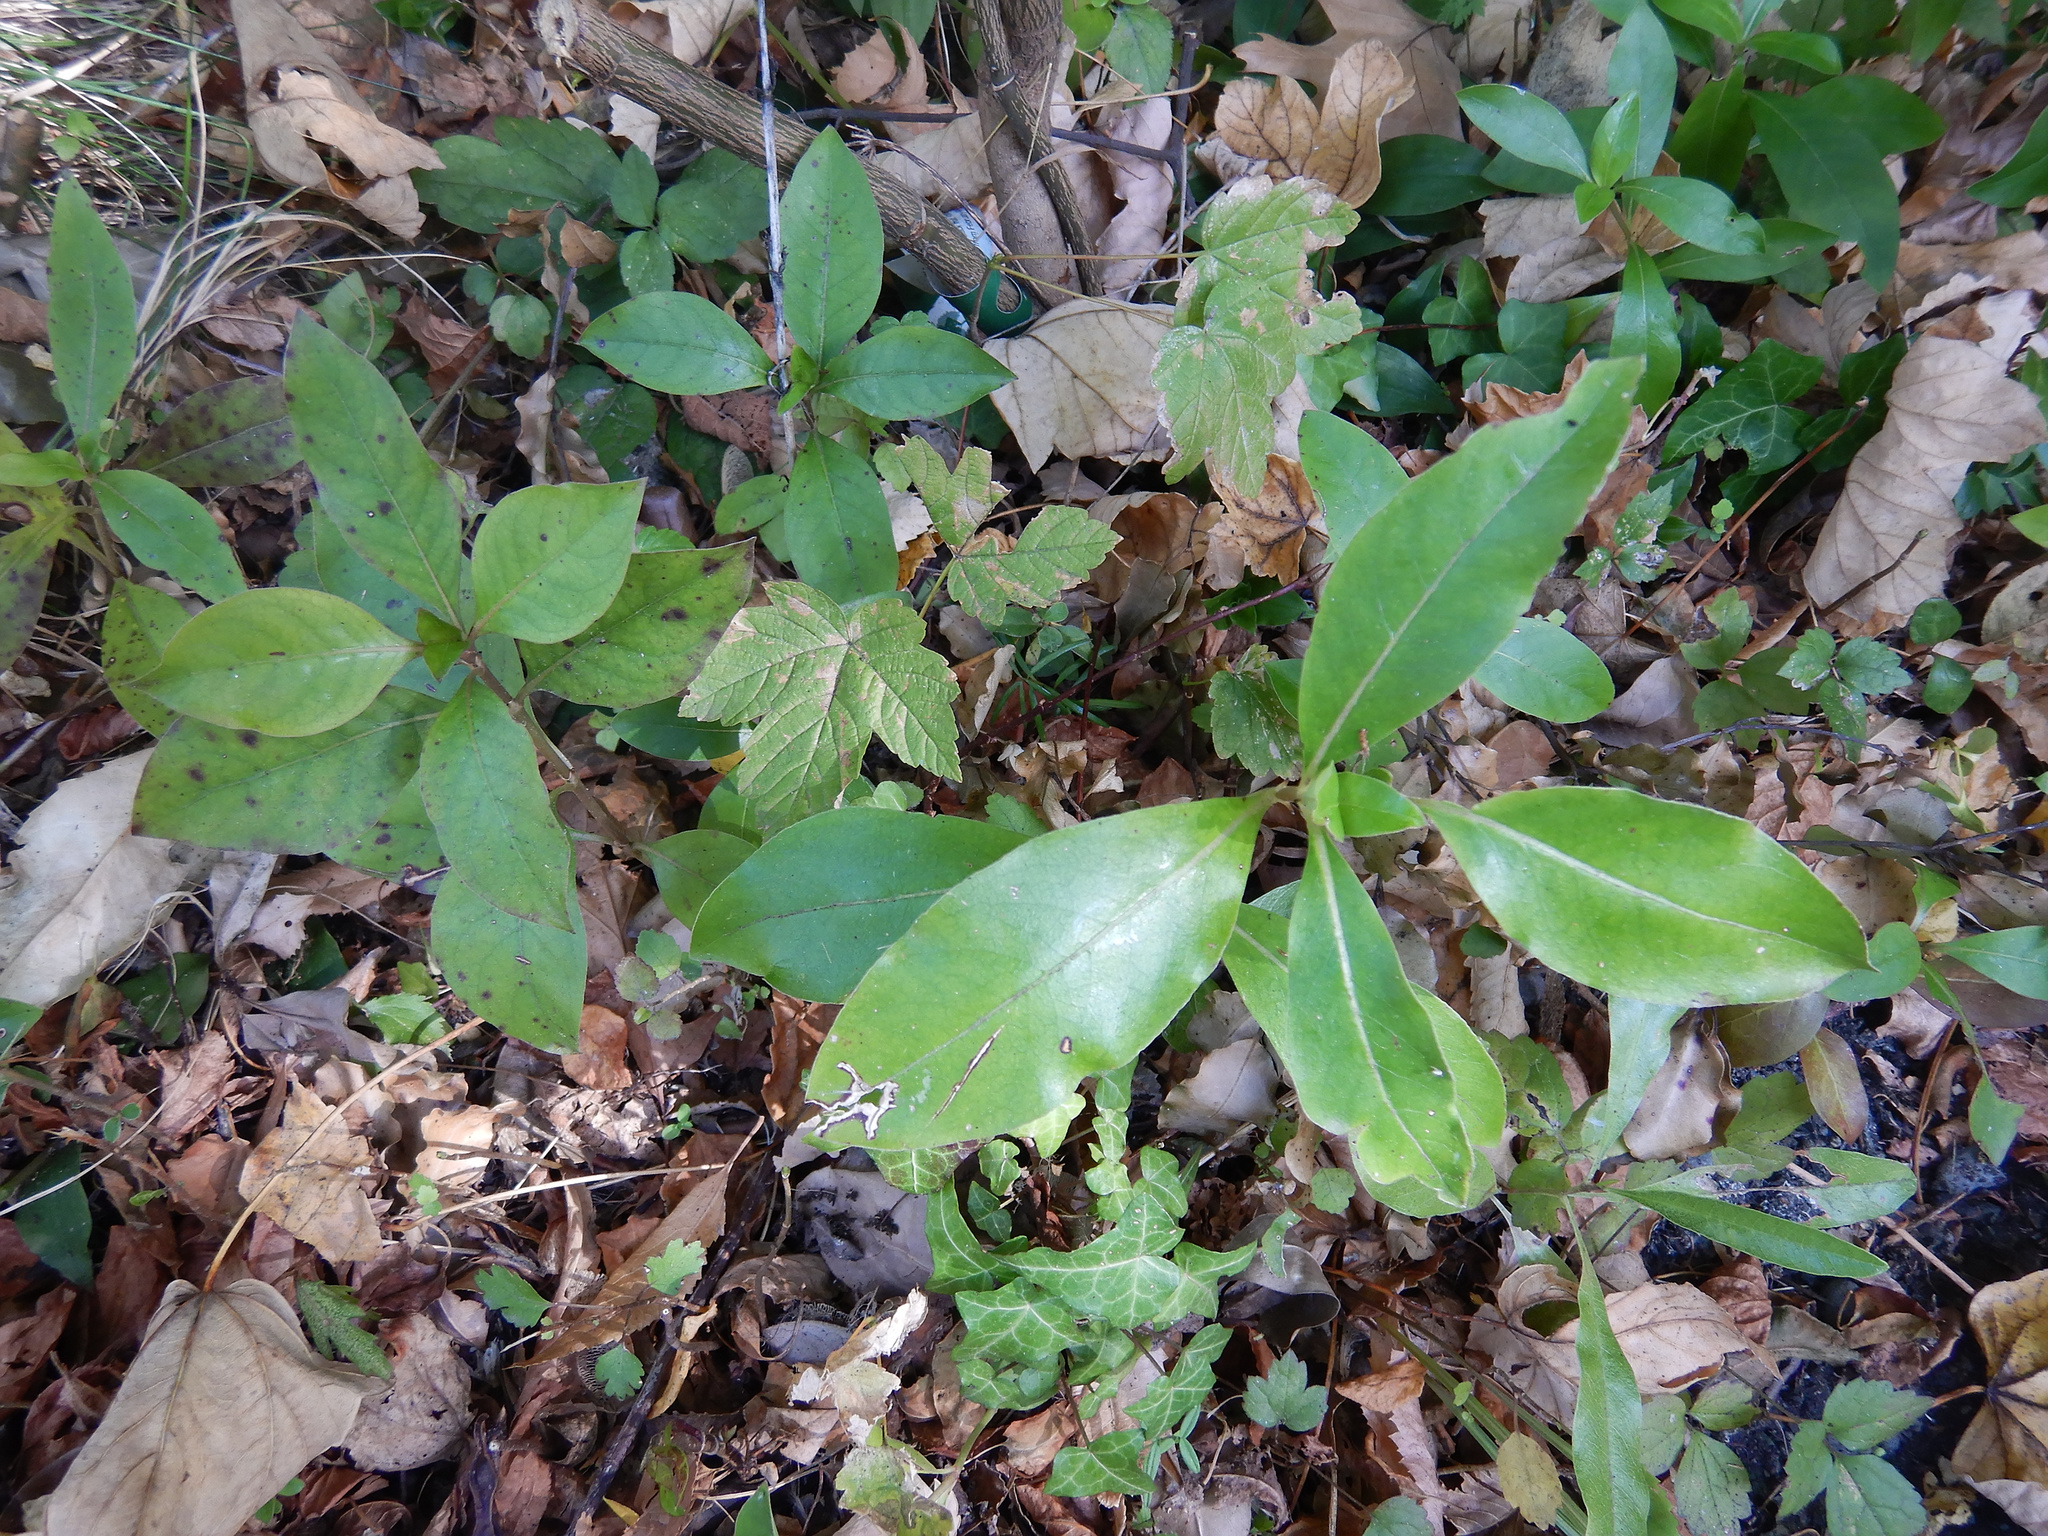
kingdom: Plantae
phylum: Tracheophyta
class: Magnoliopsida
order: Gentianales
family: Rubiaceae
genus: Coprosma
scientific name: Coprosma robusta
